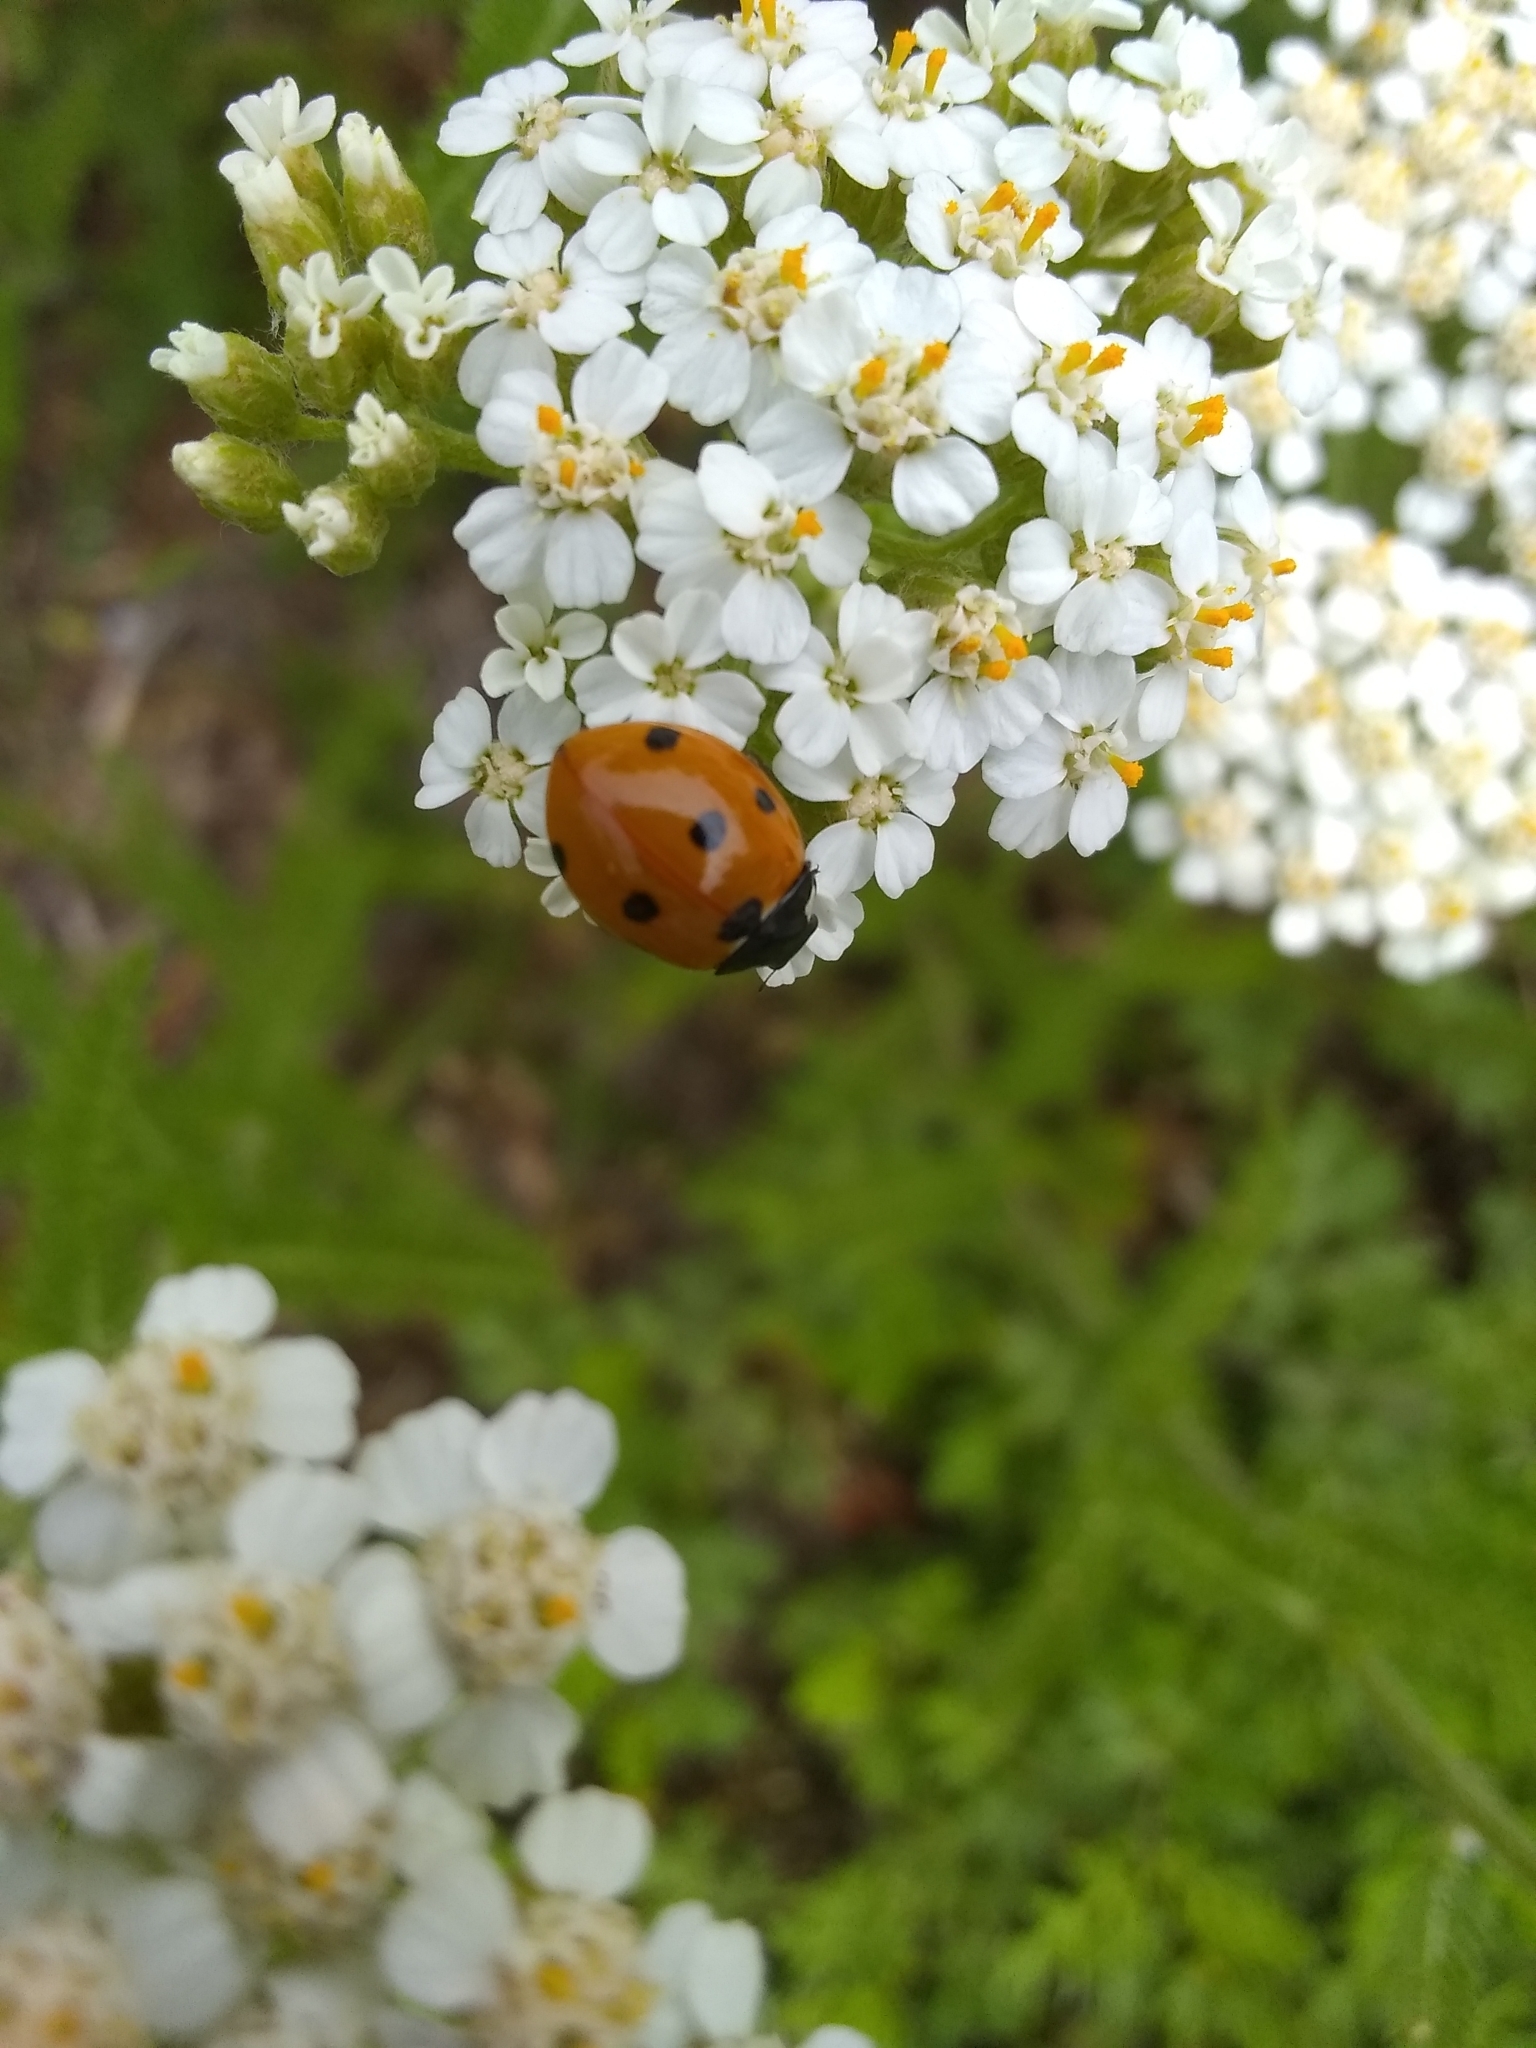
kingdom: Plantae
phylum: Tracheophyta
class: Magnoliopsida
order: Asterales
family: Asteraceae
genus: Achillea
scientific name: Achillea millefolium
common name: Yarrow
